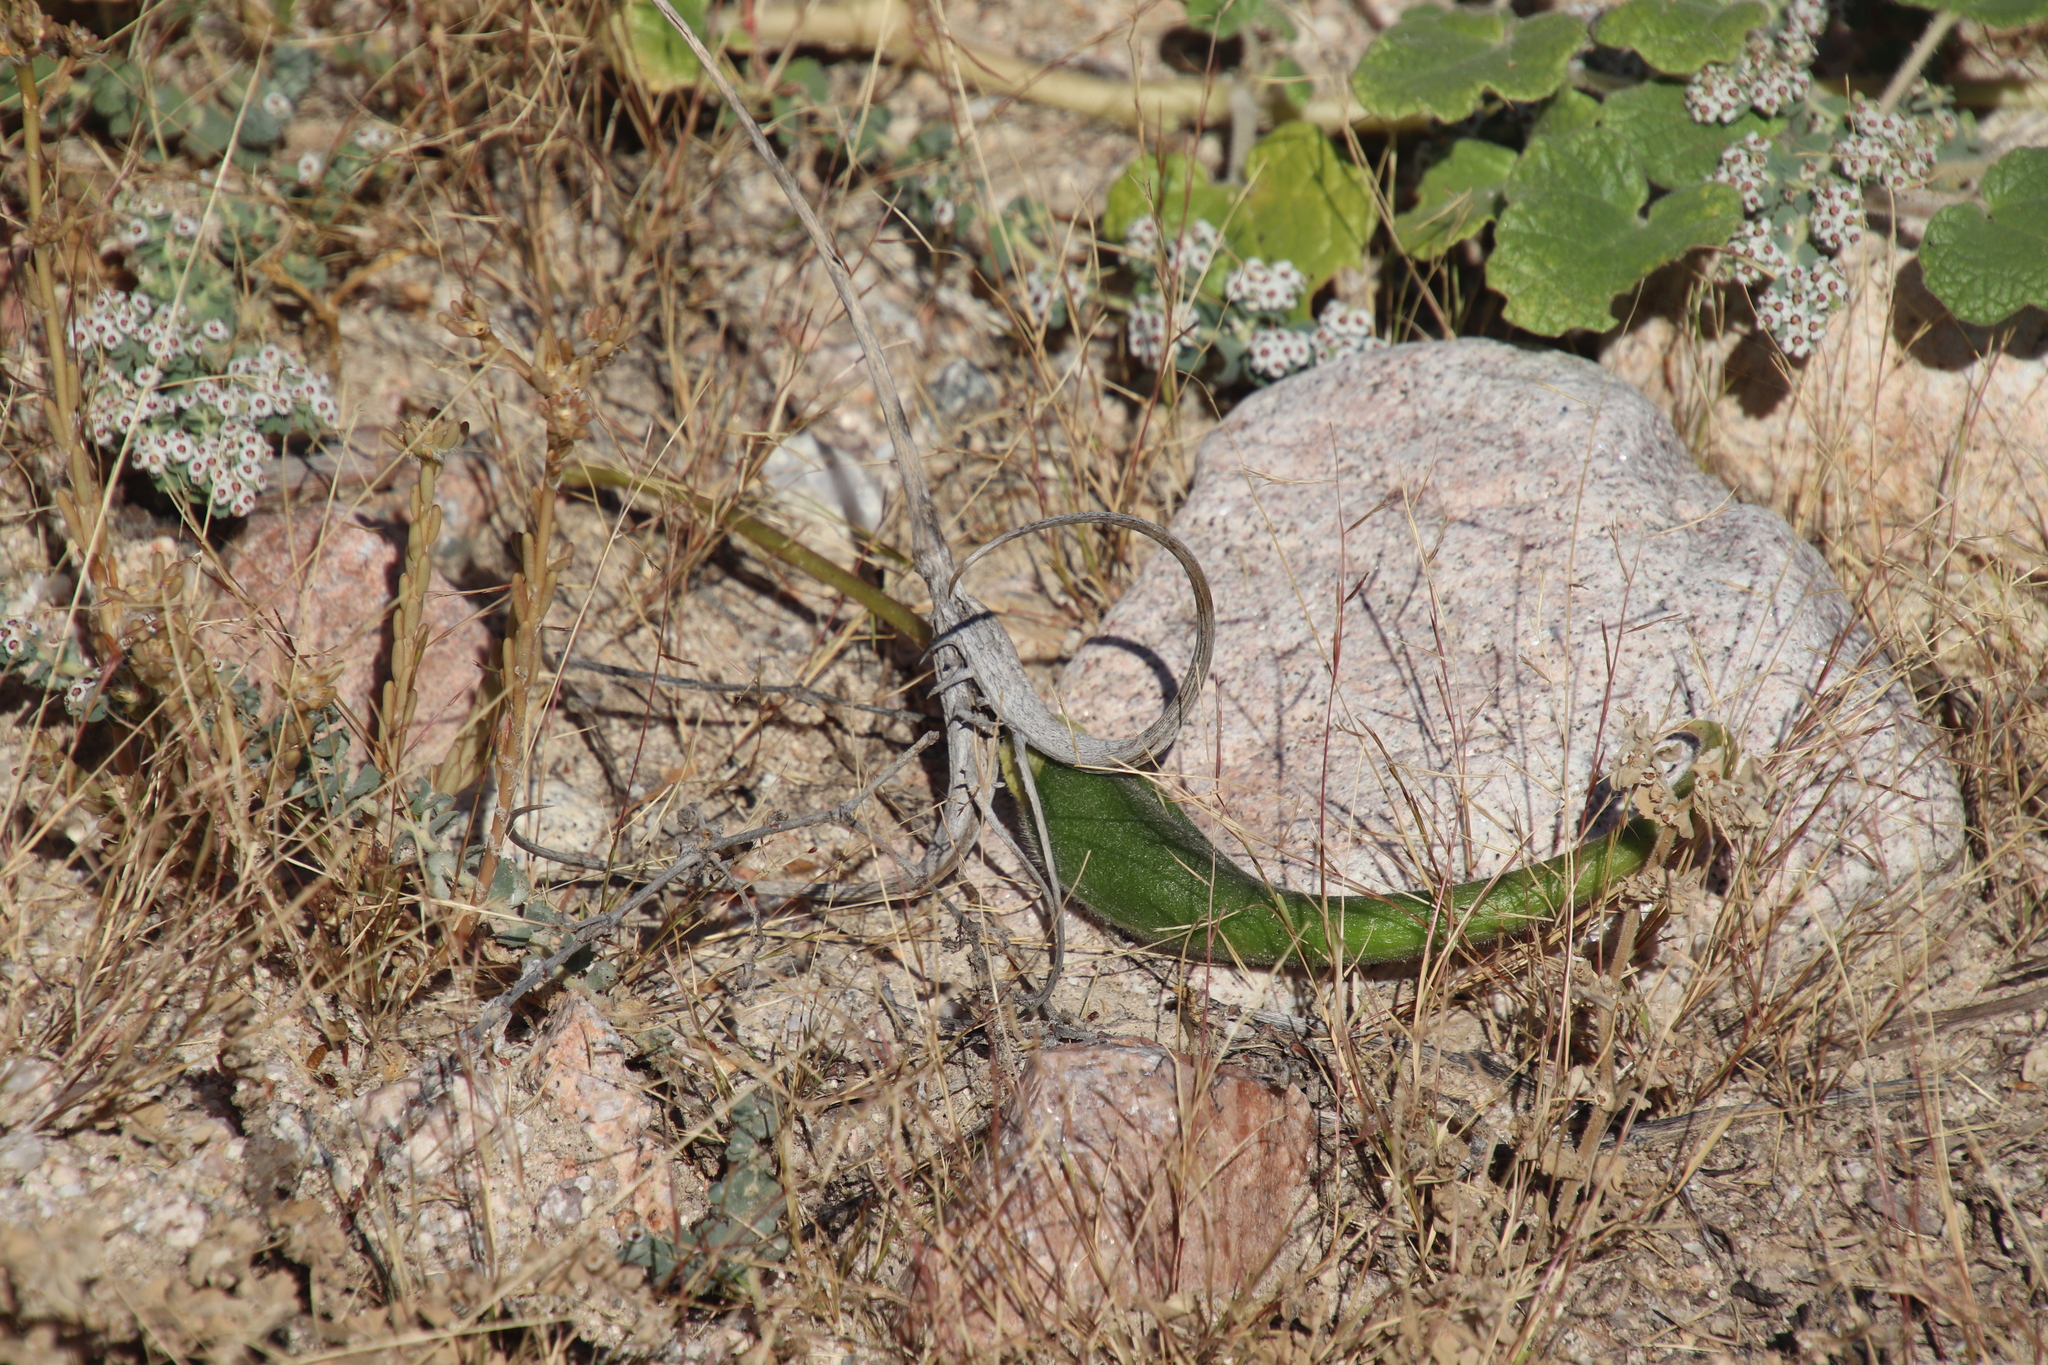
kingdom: Plantae
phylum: Tracheophyta
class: Magnoliopsida
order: Lamiales
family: Martyniaceae
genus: Proboscidea
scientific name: Proboscidea althaeifolia
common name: Desert unicorn-plant
